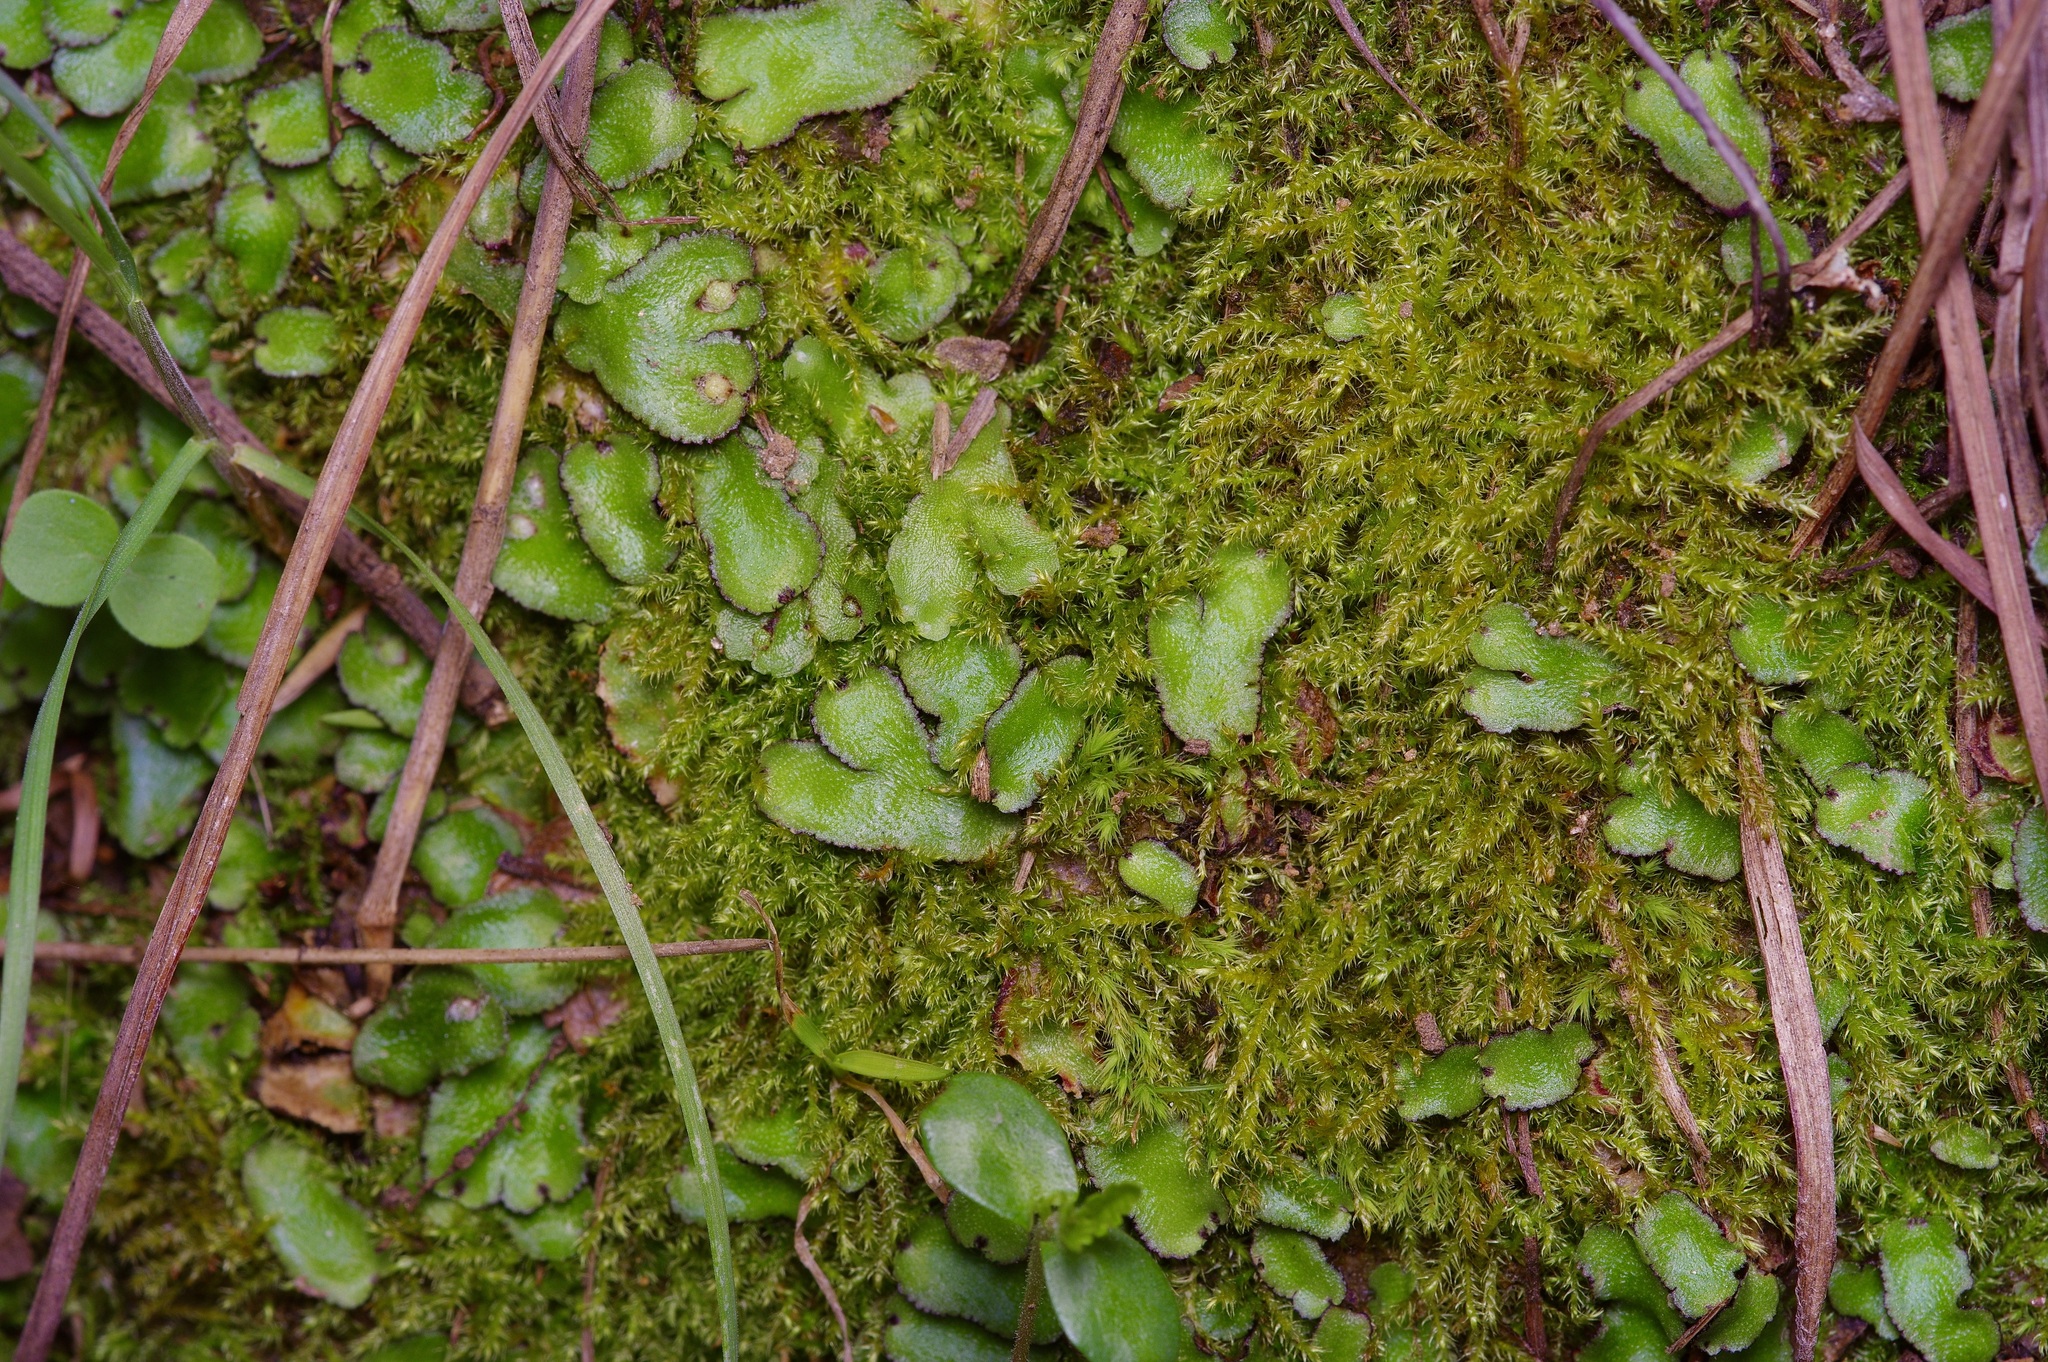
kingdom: Plantae
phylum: Marchantiophyta
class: Marchantiopsida
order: Marchantiales
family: Aytoniaceae
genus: Reboulia
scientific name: Reboulia hemisphaerica
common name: Purple-margined liverwort
